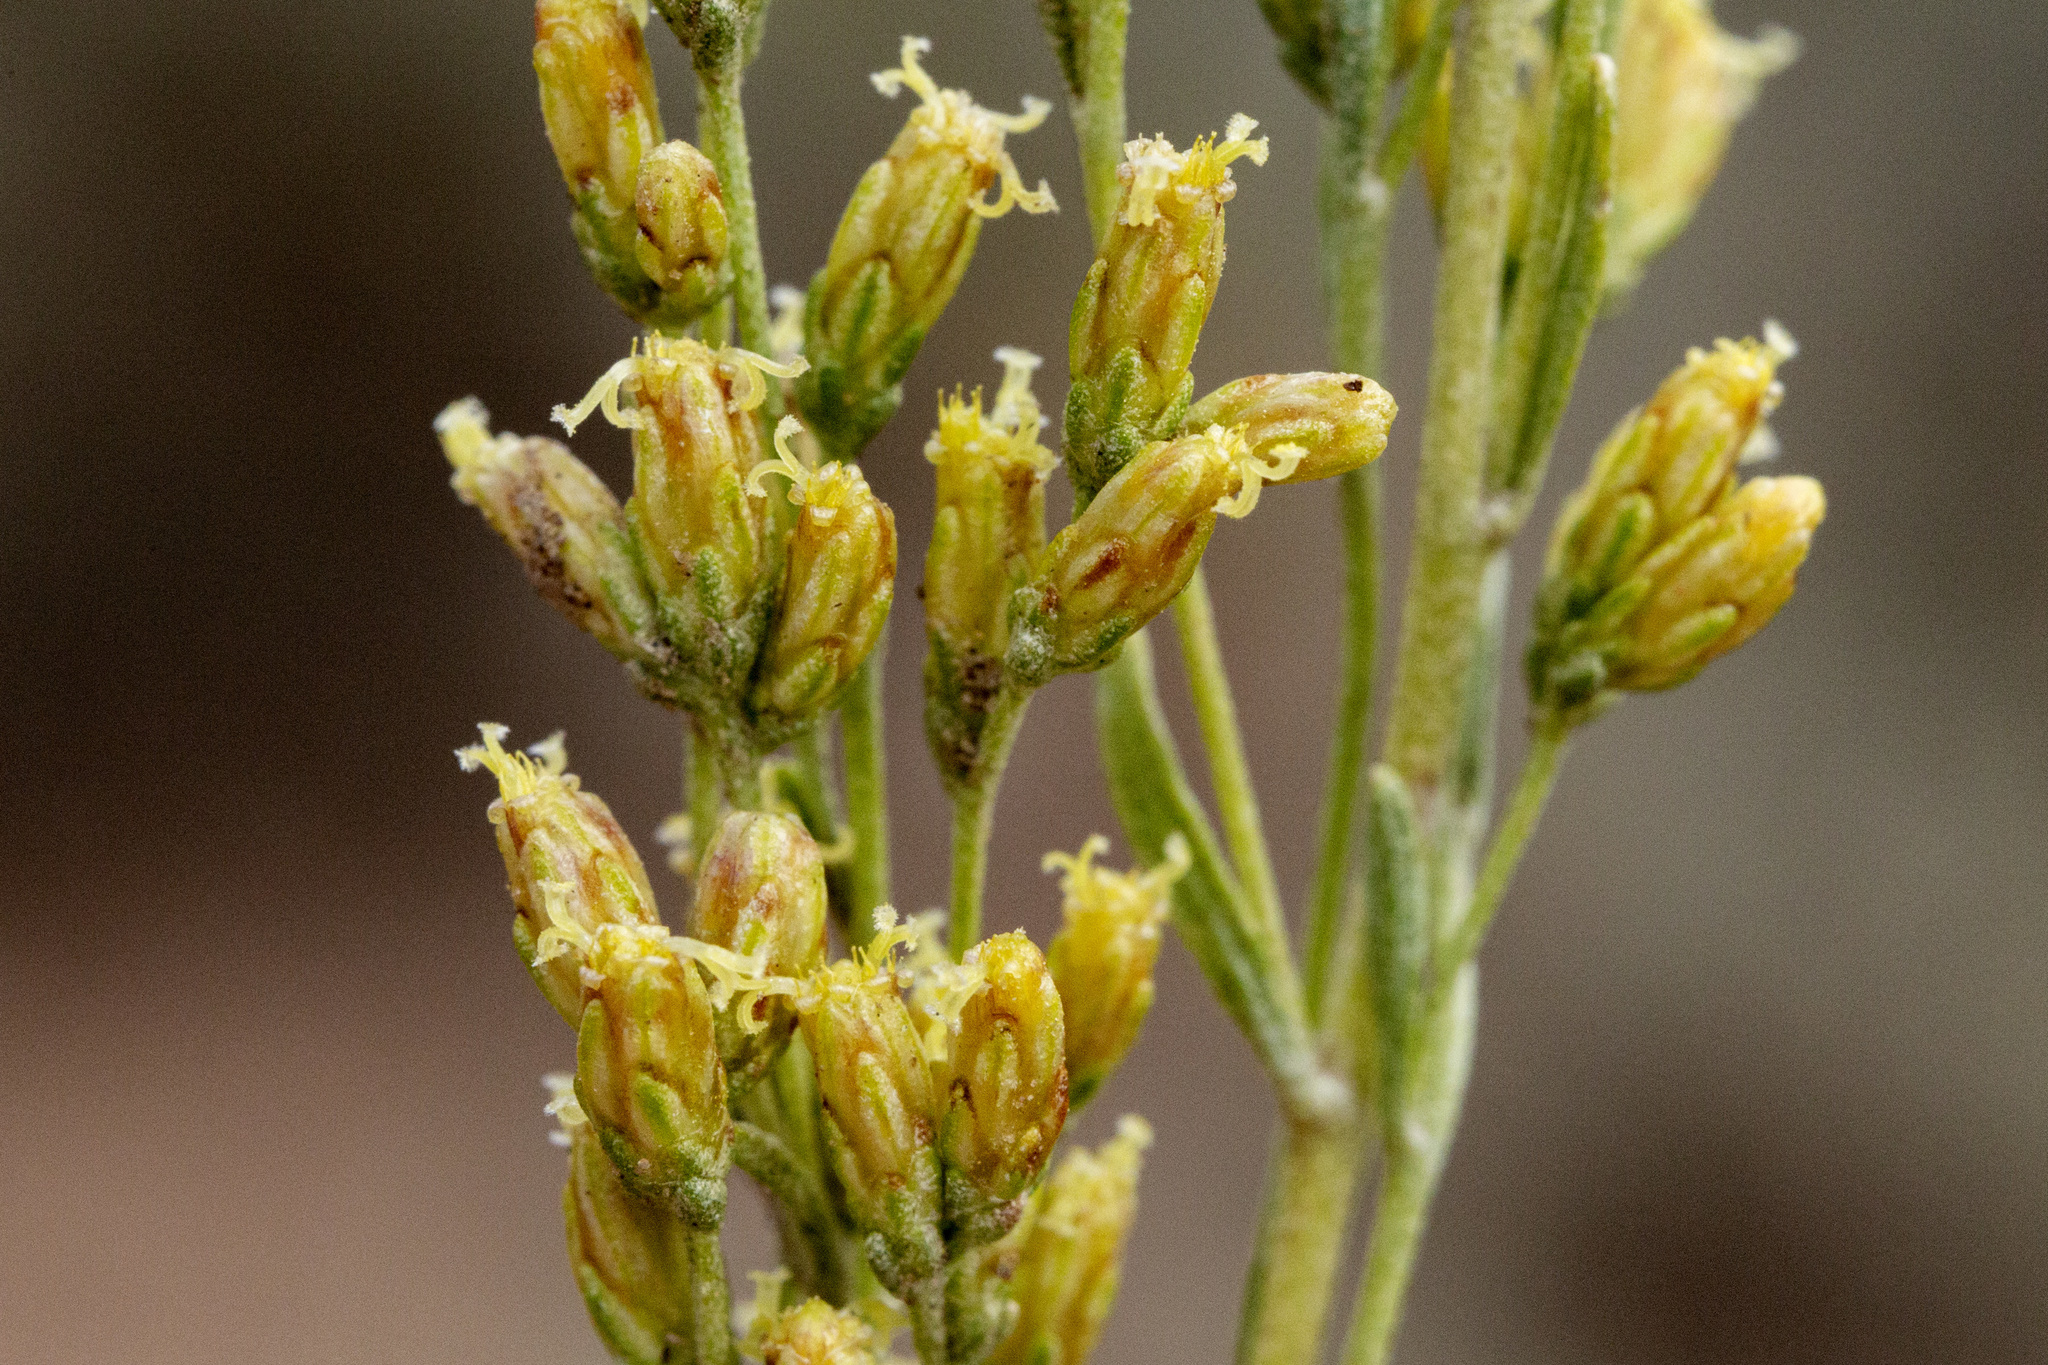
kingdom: Plantae
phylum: Tracheophyta
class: Magnoliopsida
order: Asterales
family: Asteraceae
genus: Artemisia
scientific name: Artemisia nova
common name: Black-sage
